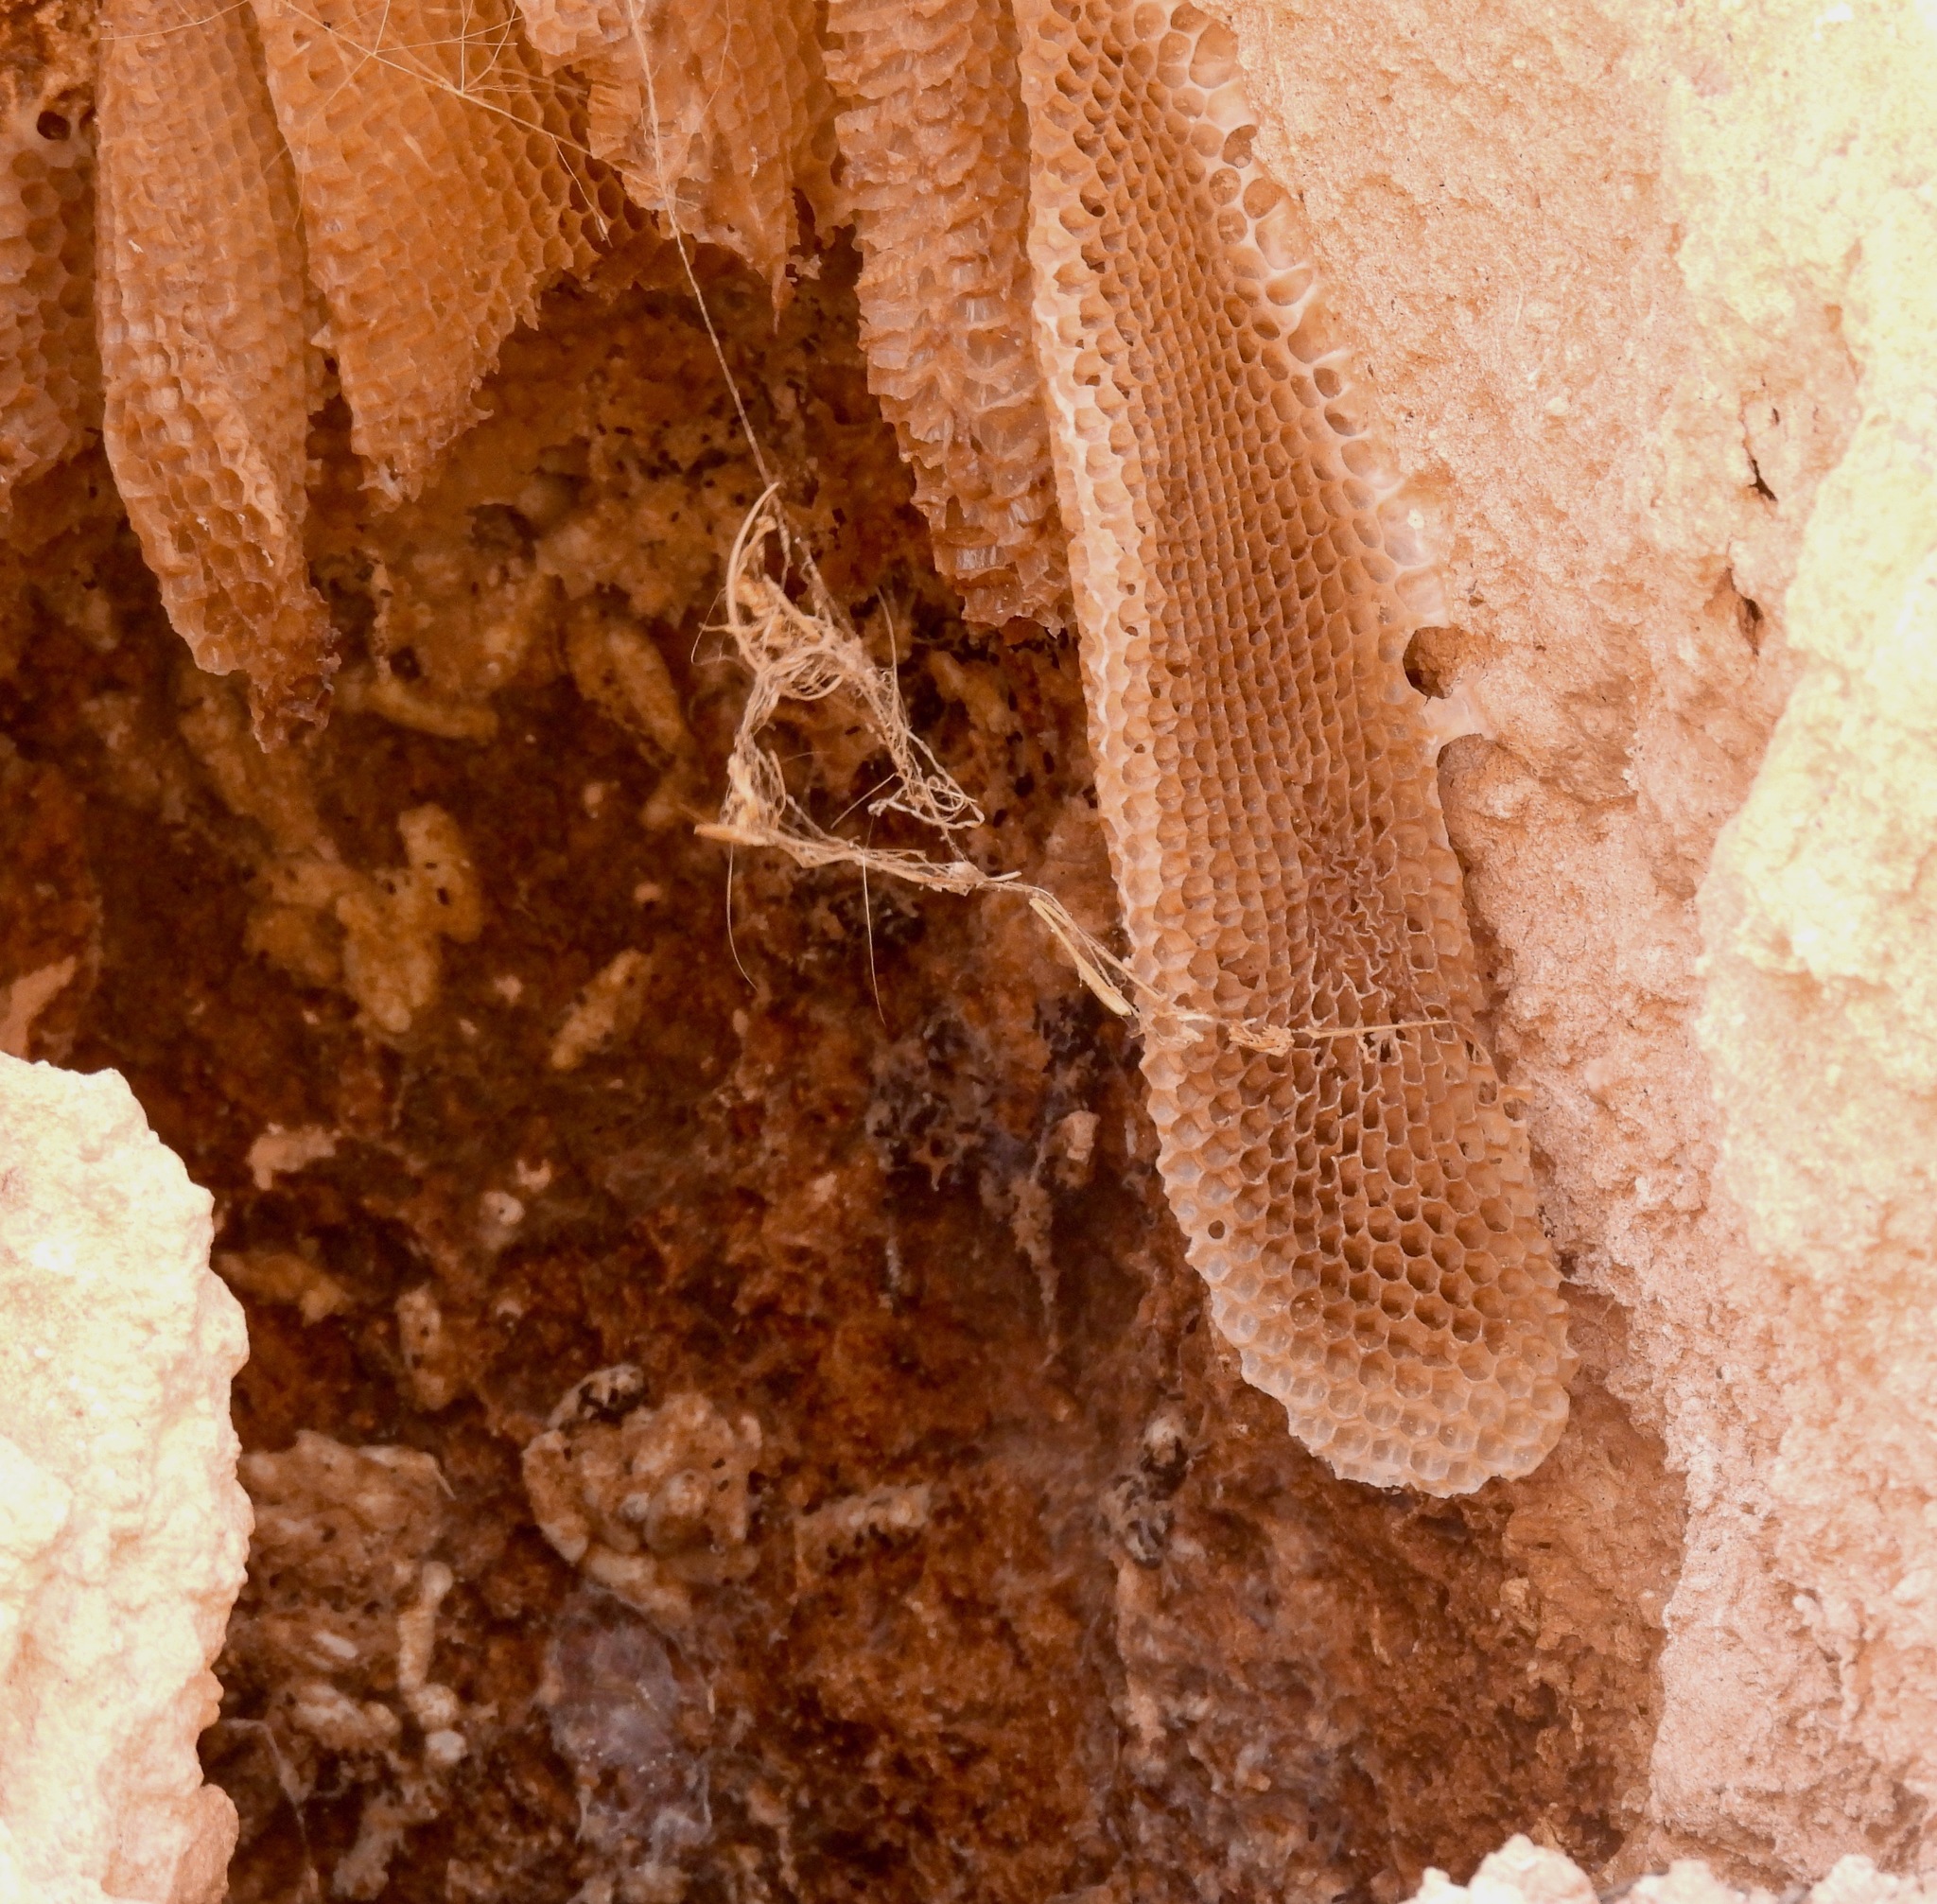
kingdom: Animalia
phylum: Arthropoda
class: Insecta
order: Hymenoptera
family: Apidae
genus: Apis
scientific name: Apis mellifera
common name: Honey bee
